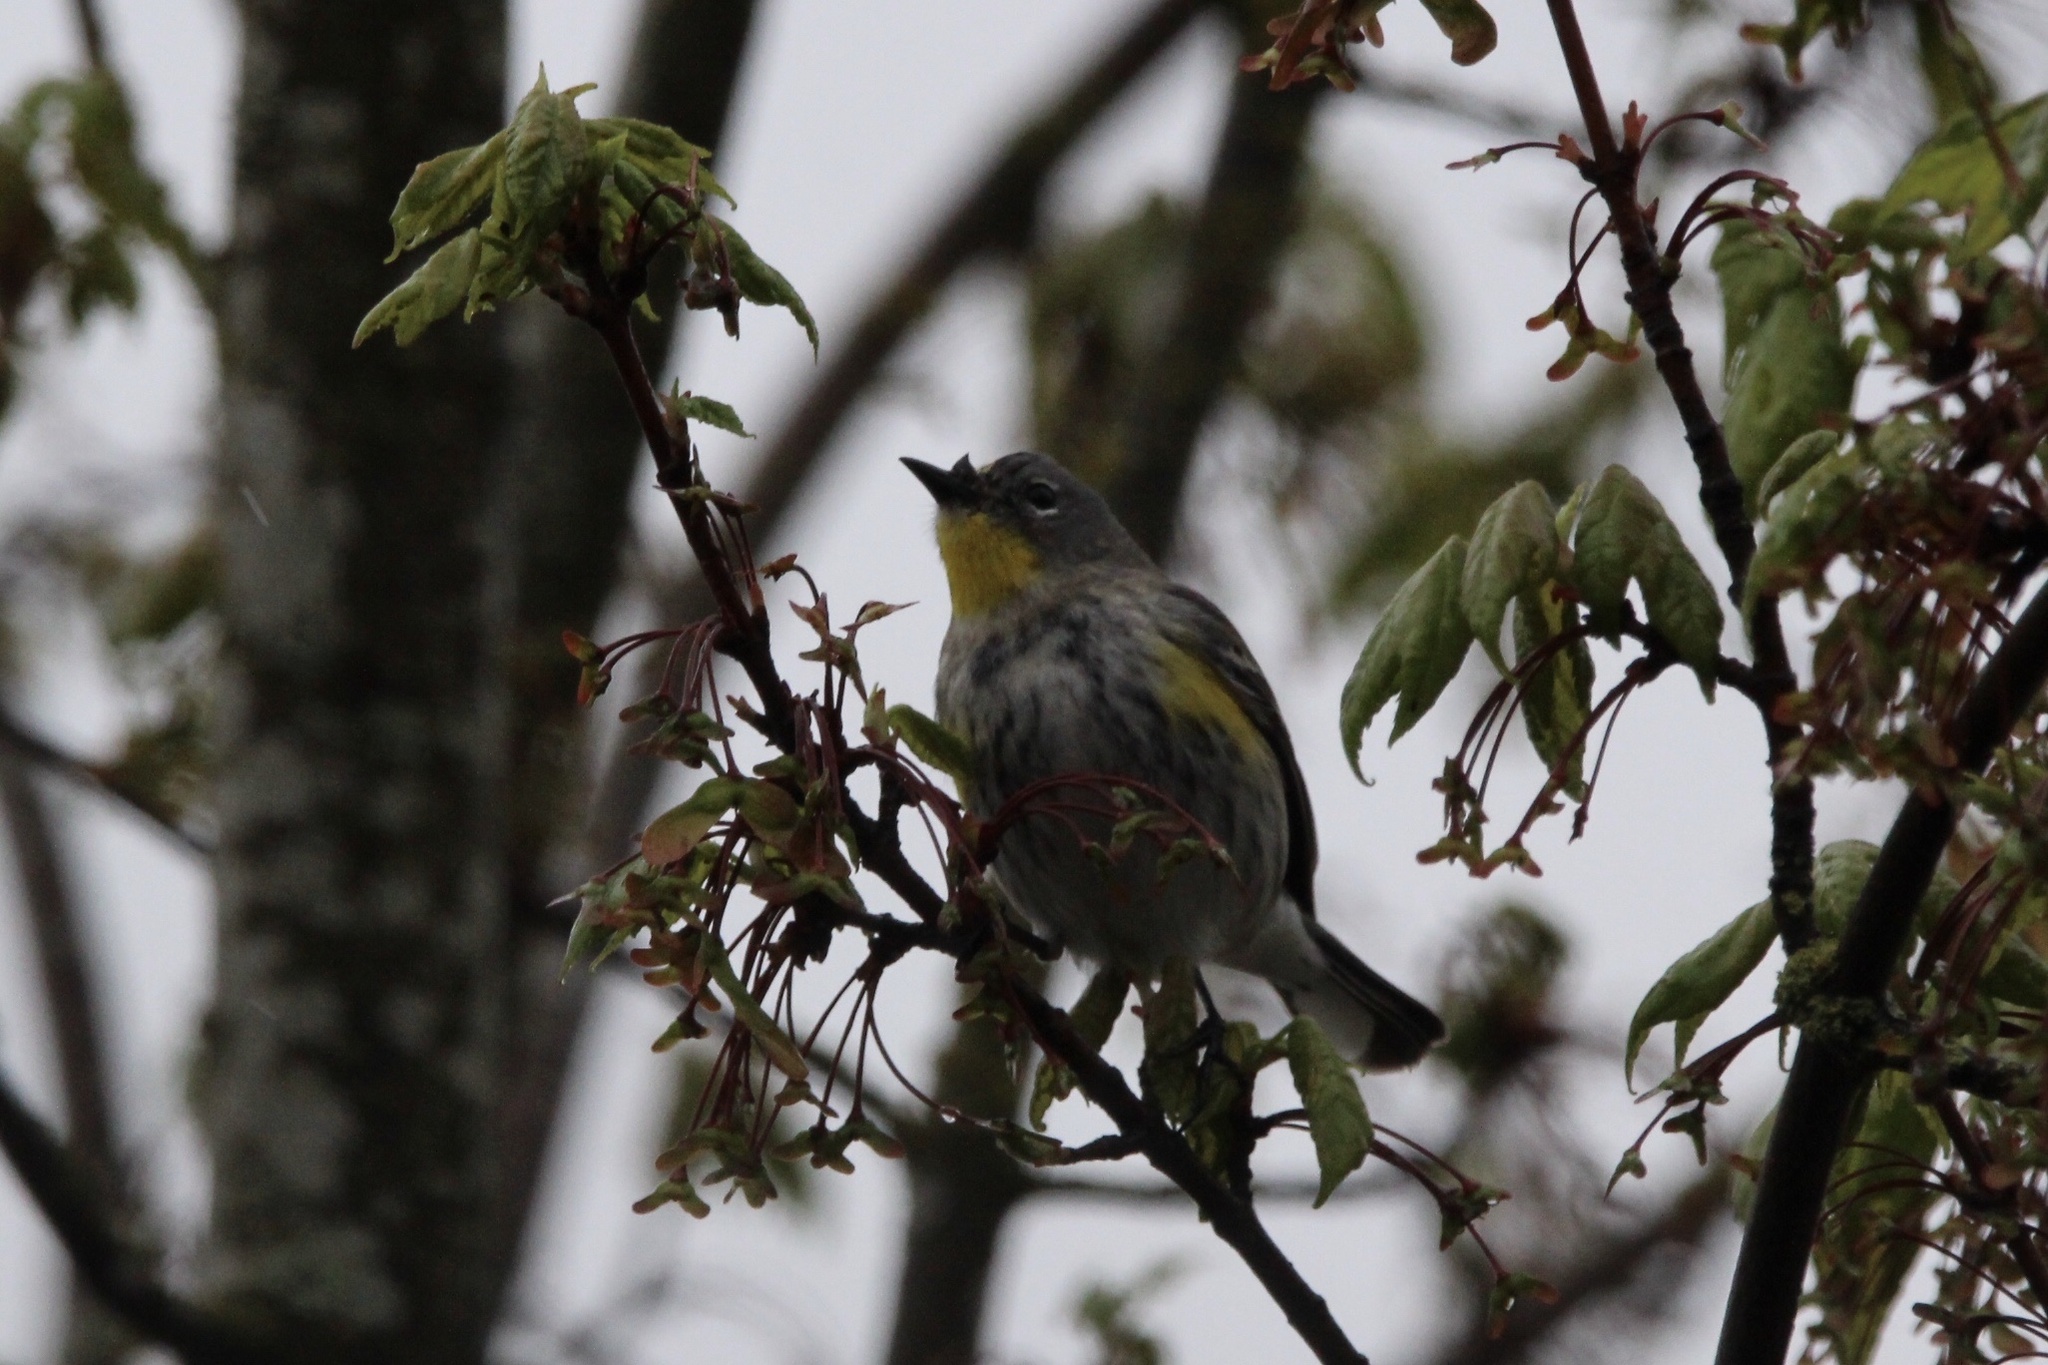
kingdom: Animalia
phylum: Chordata
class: Aves
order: Passeriformes
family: Parulidae
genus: Setophaga
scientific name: Setophaga auduboni
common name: Audubon's warbler
